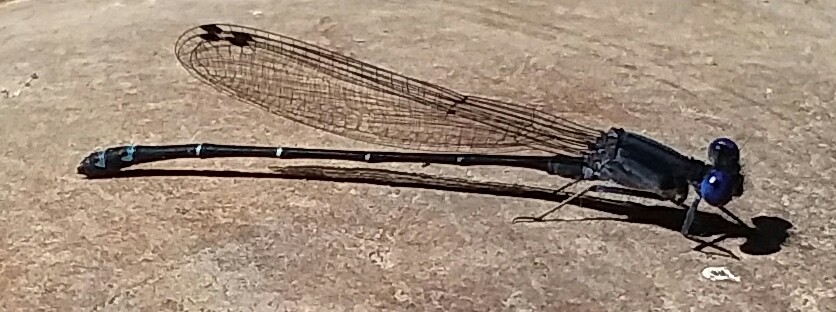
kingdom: Animalia
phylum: Arthropoda
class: Insecta
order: Odonata
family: Coenagrionidae
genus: Argia
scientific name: Argia translata
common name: Dusky dancer
